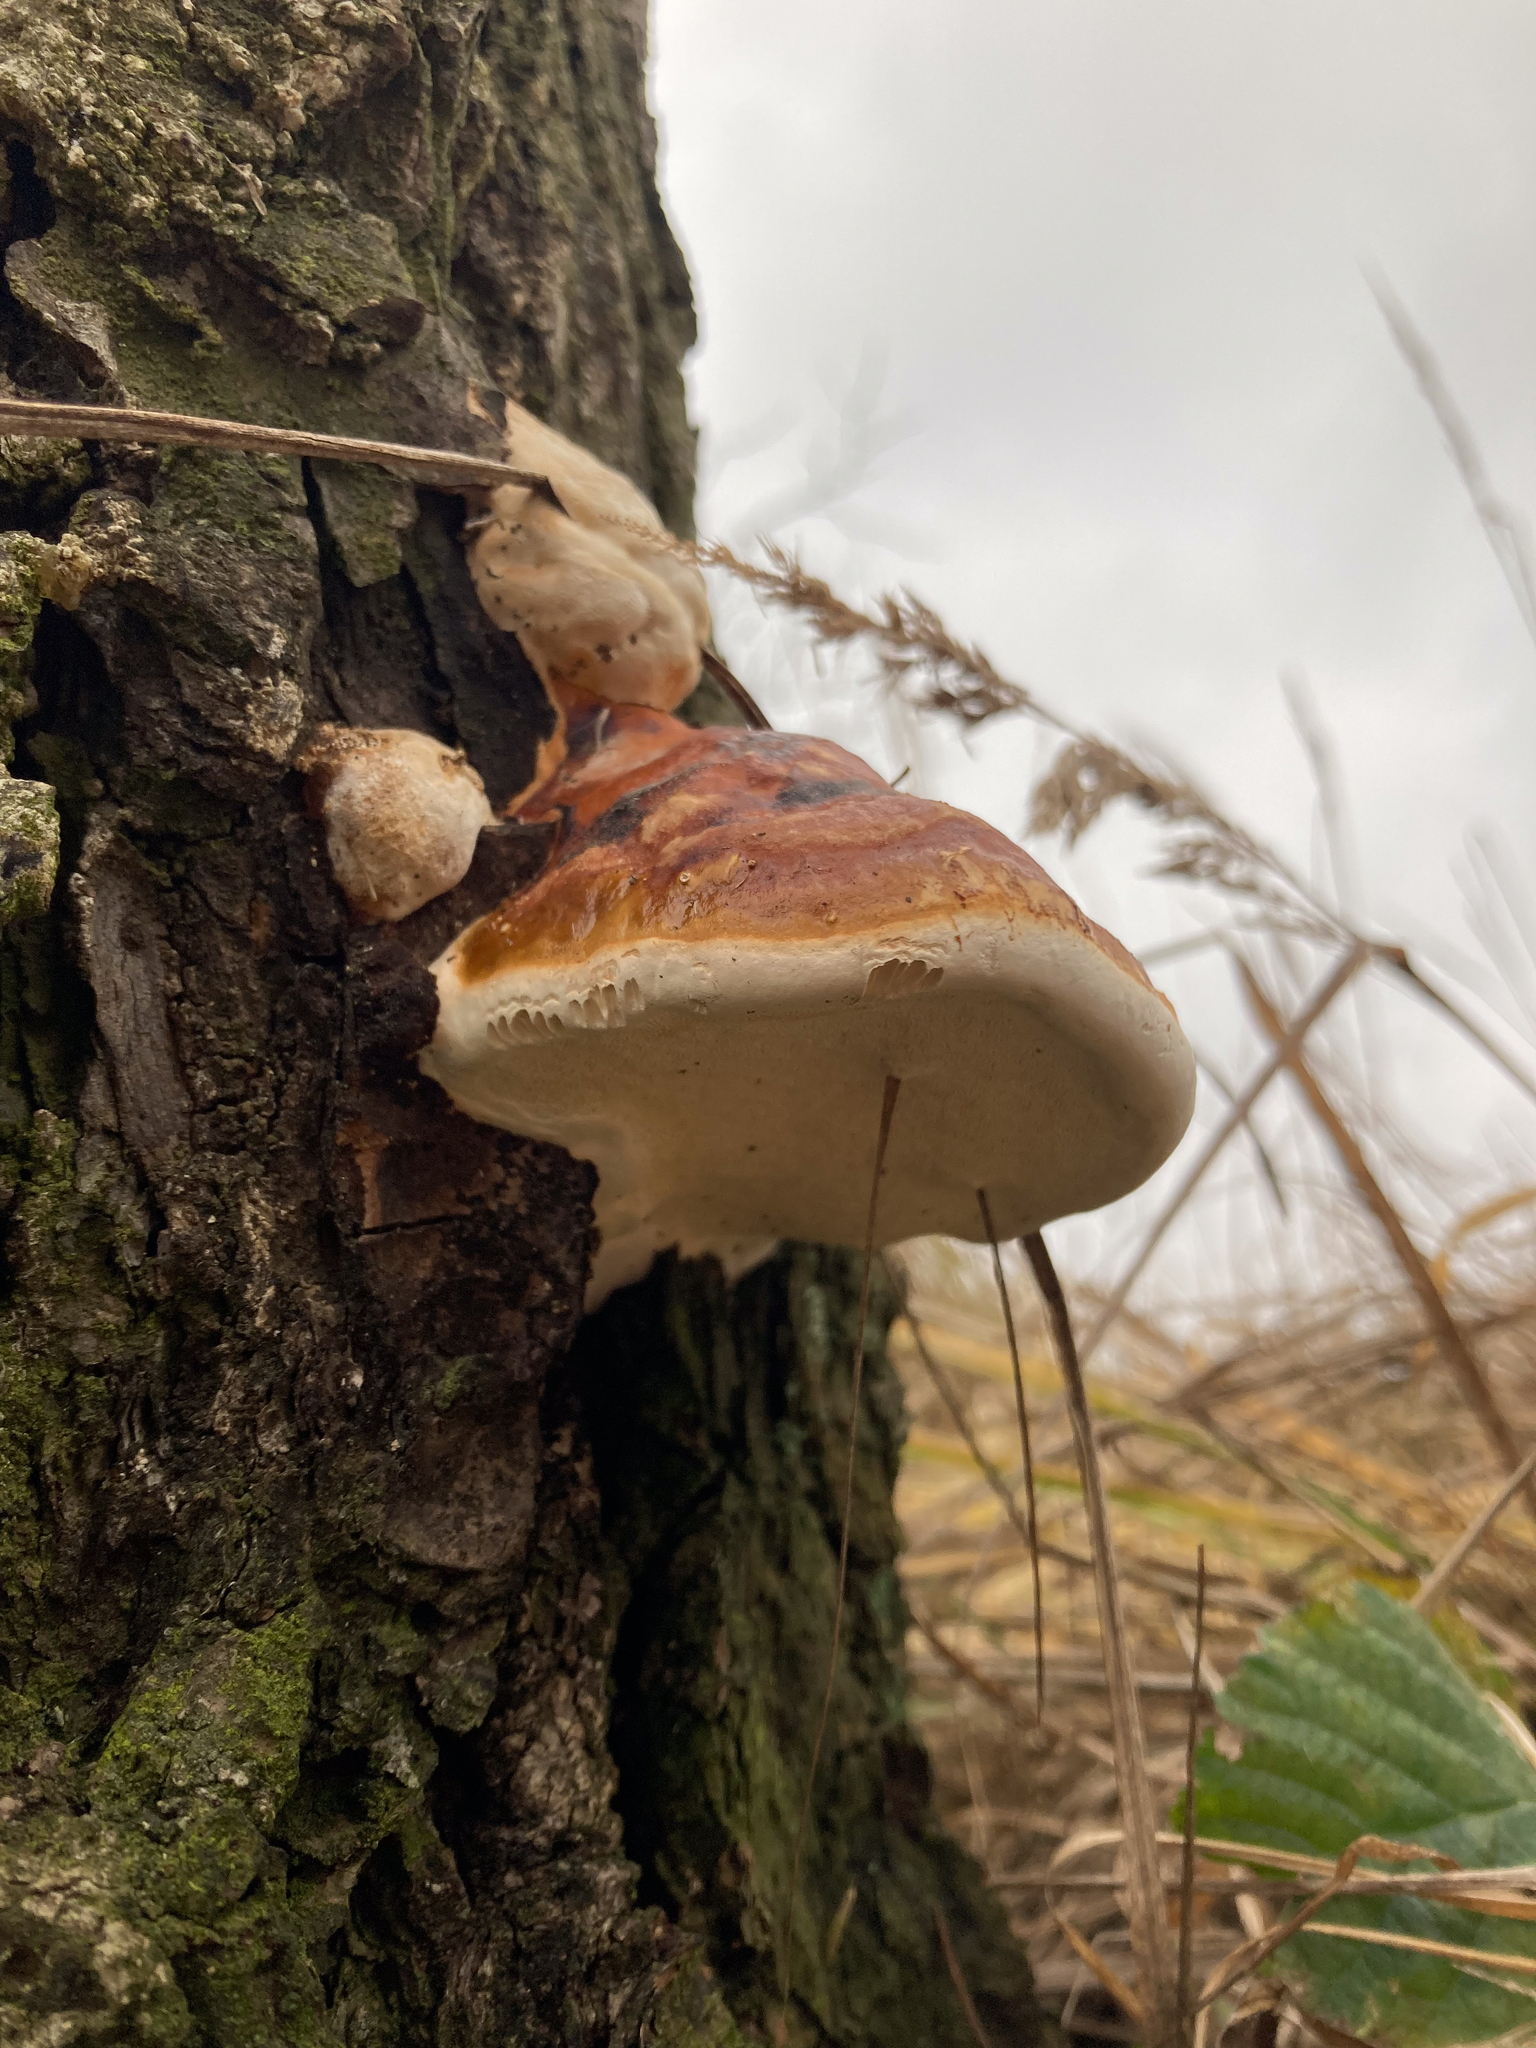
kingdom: Fungi
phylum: Basidiomycota
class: Agaricomycetes
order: Polyporales
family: Fomitopsidaceae
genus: Fomitopsis
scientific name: Fomitopsis pinicola
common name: Red-belted bracket
